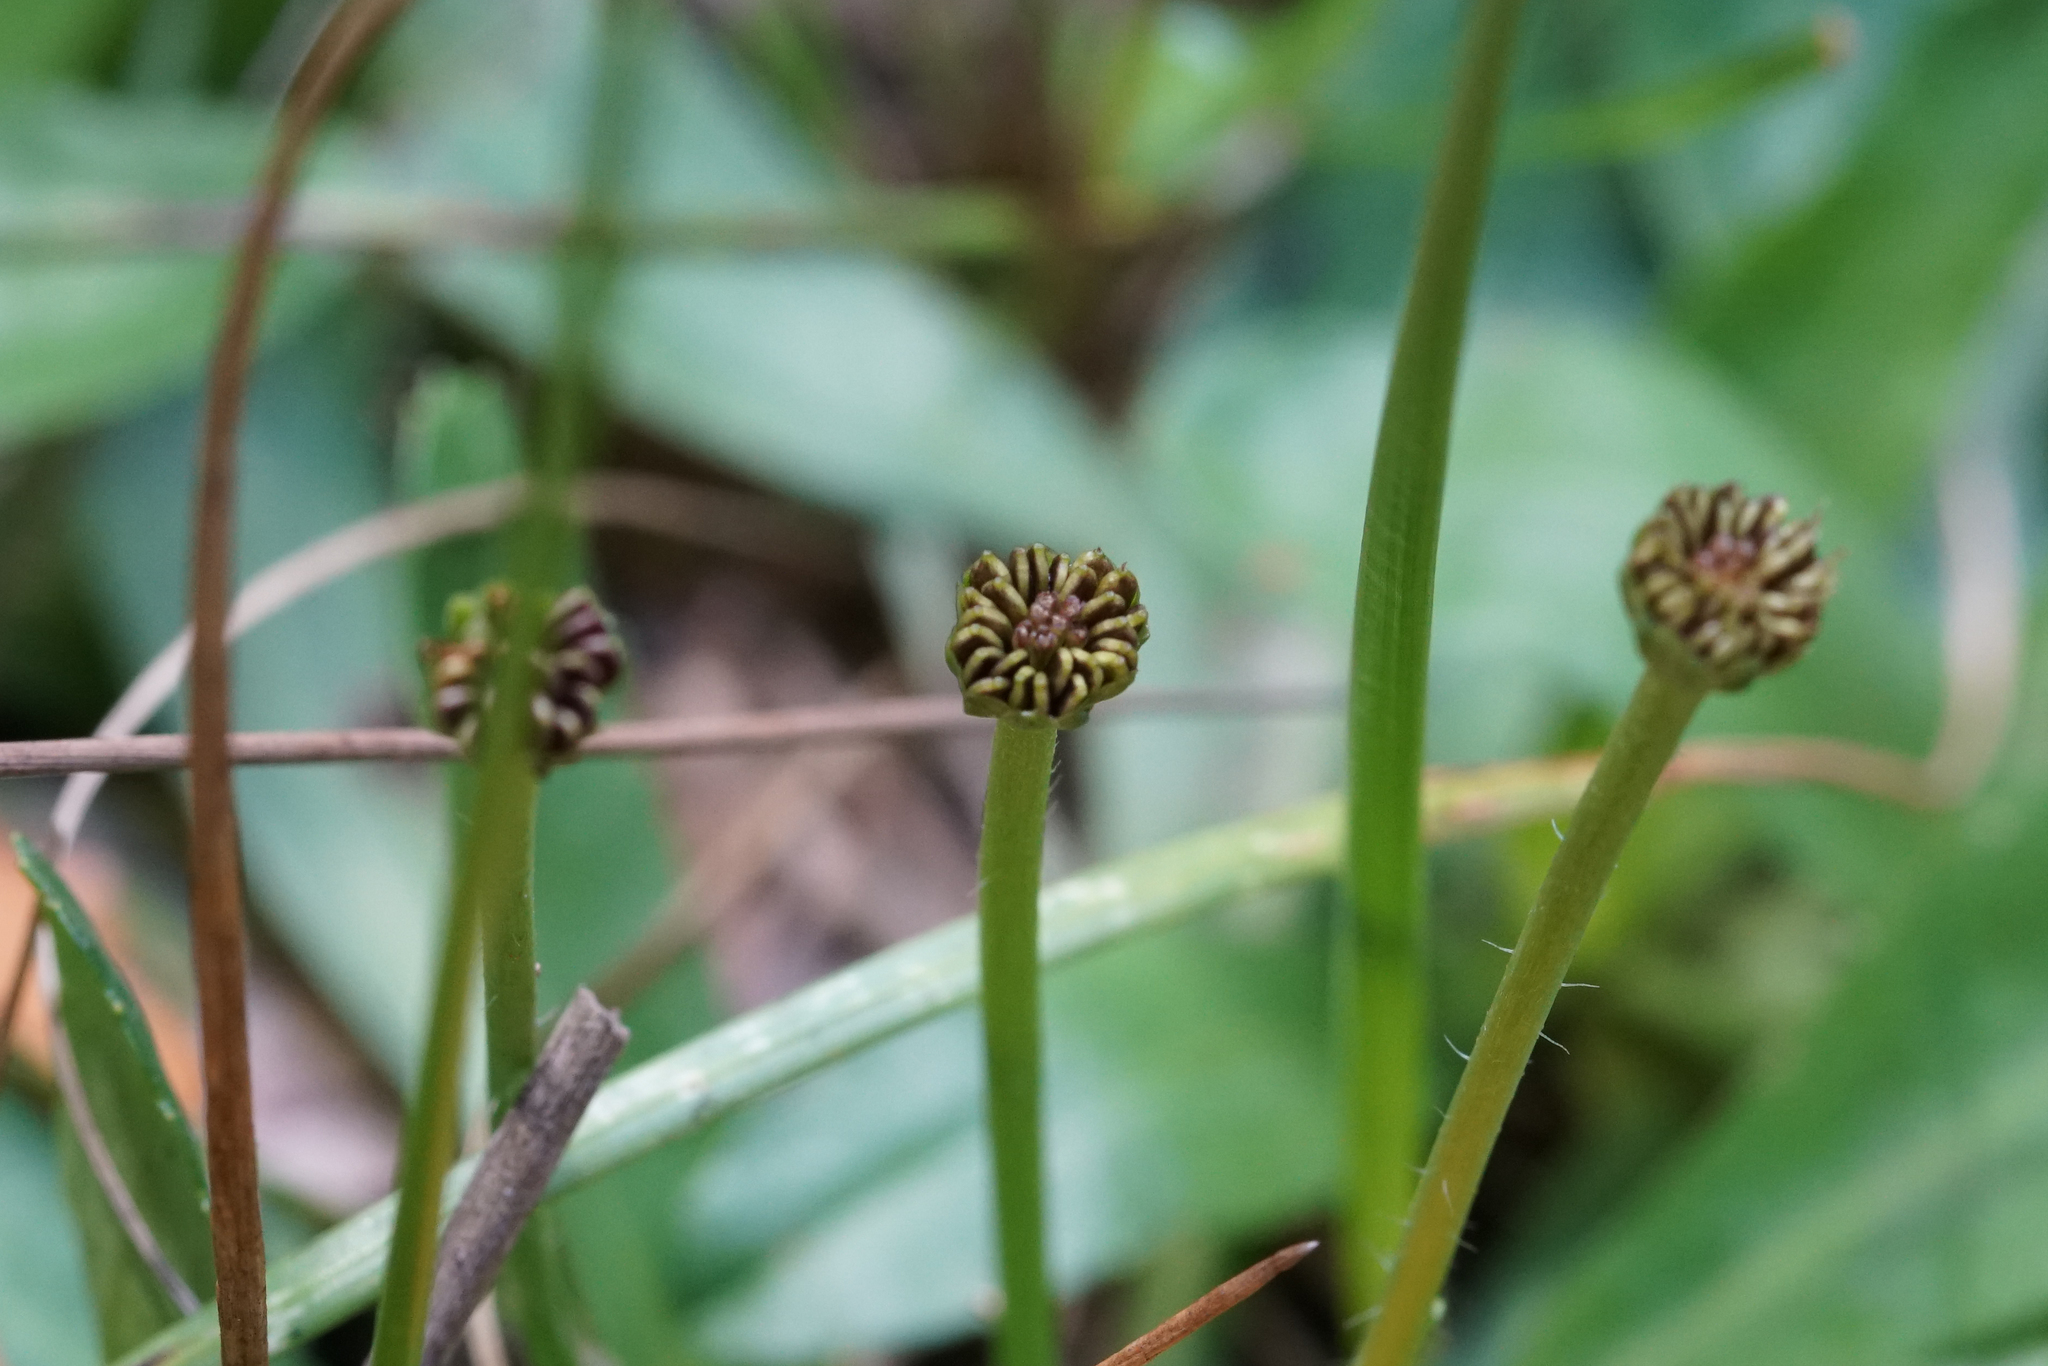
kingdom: Plantae
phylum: Tracheophyta
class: Magnoliopsida
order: Asterales
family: Asteraceae
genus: Solenogyne
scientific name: Solenogyne dominii
